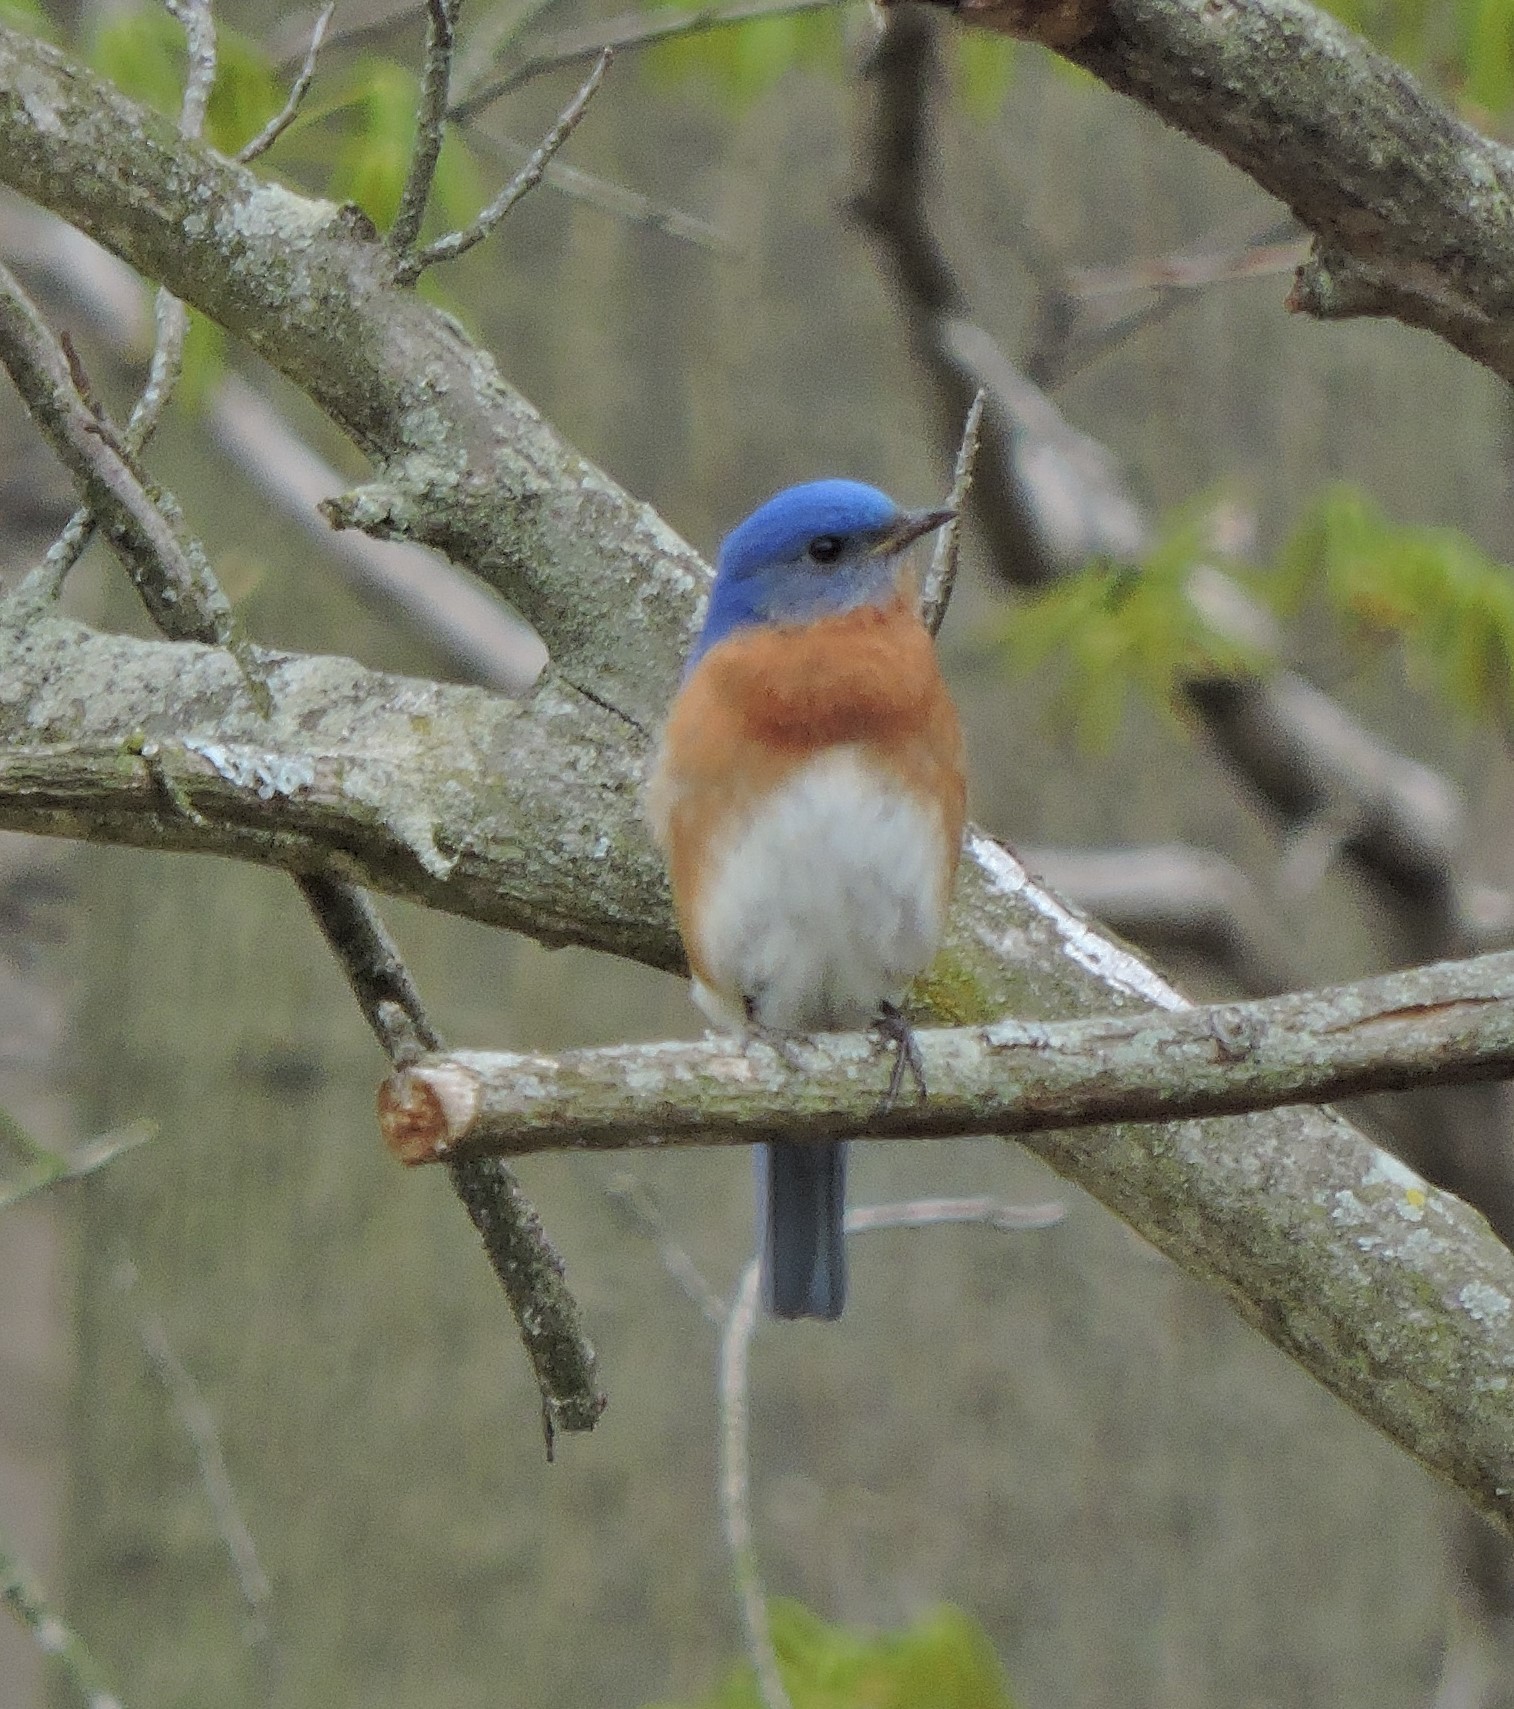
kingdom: Animalia
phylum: Chordata
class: Aves
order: Passeriformes
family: Turdidae
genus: Sialia
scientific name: Sialia sialis
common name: Eastern bluebird
